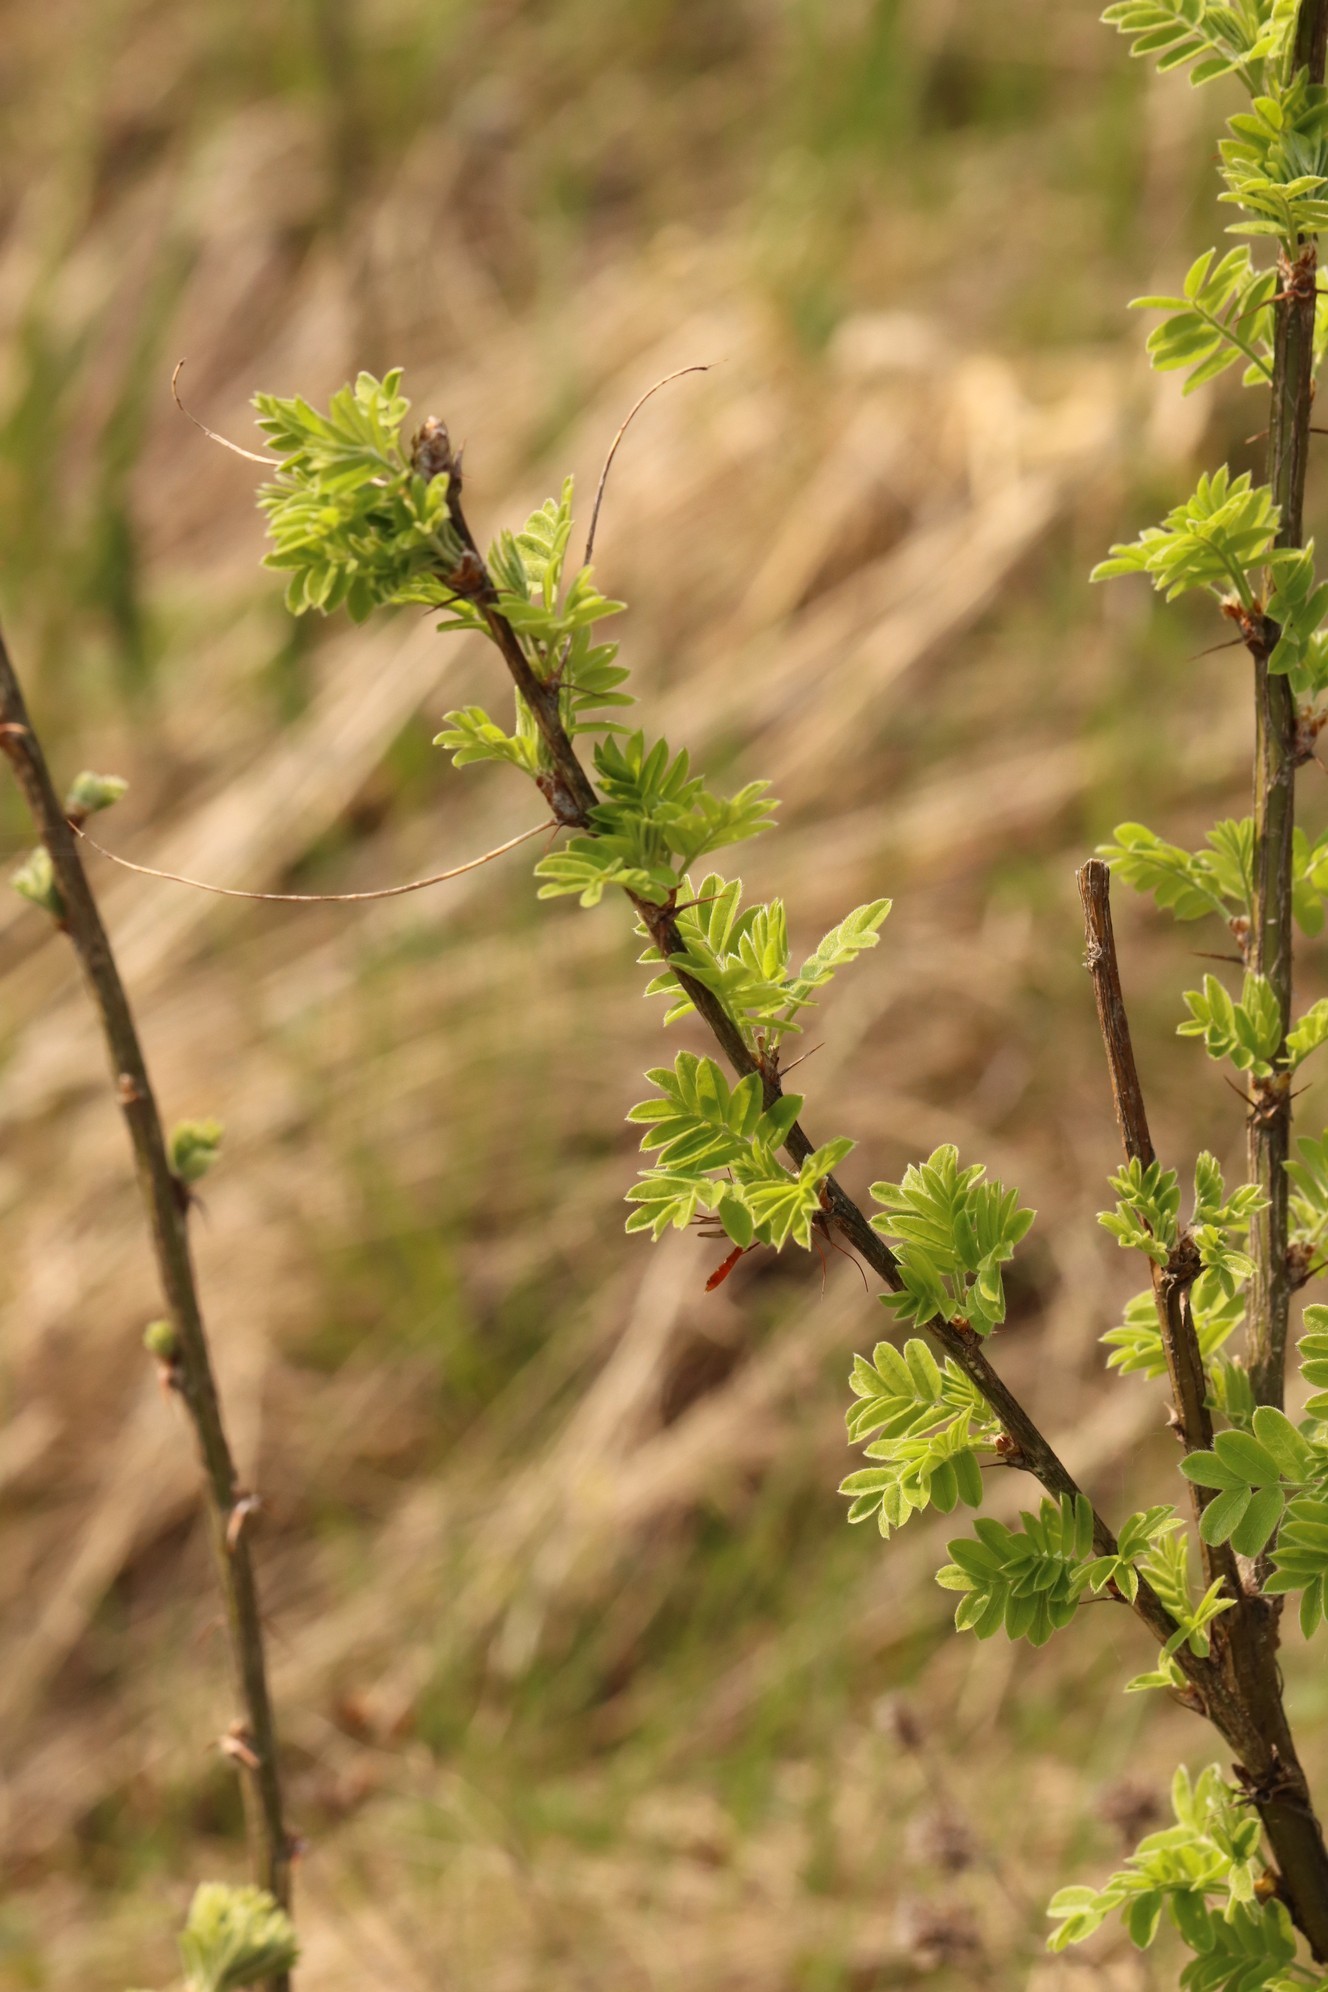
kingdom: Plantae
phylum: Tracheophyta
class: Magnoliopsida
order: Fabales
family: Fabaceae
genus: Caragana
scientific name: Caragana arborescens
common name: Siberian peashrub
